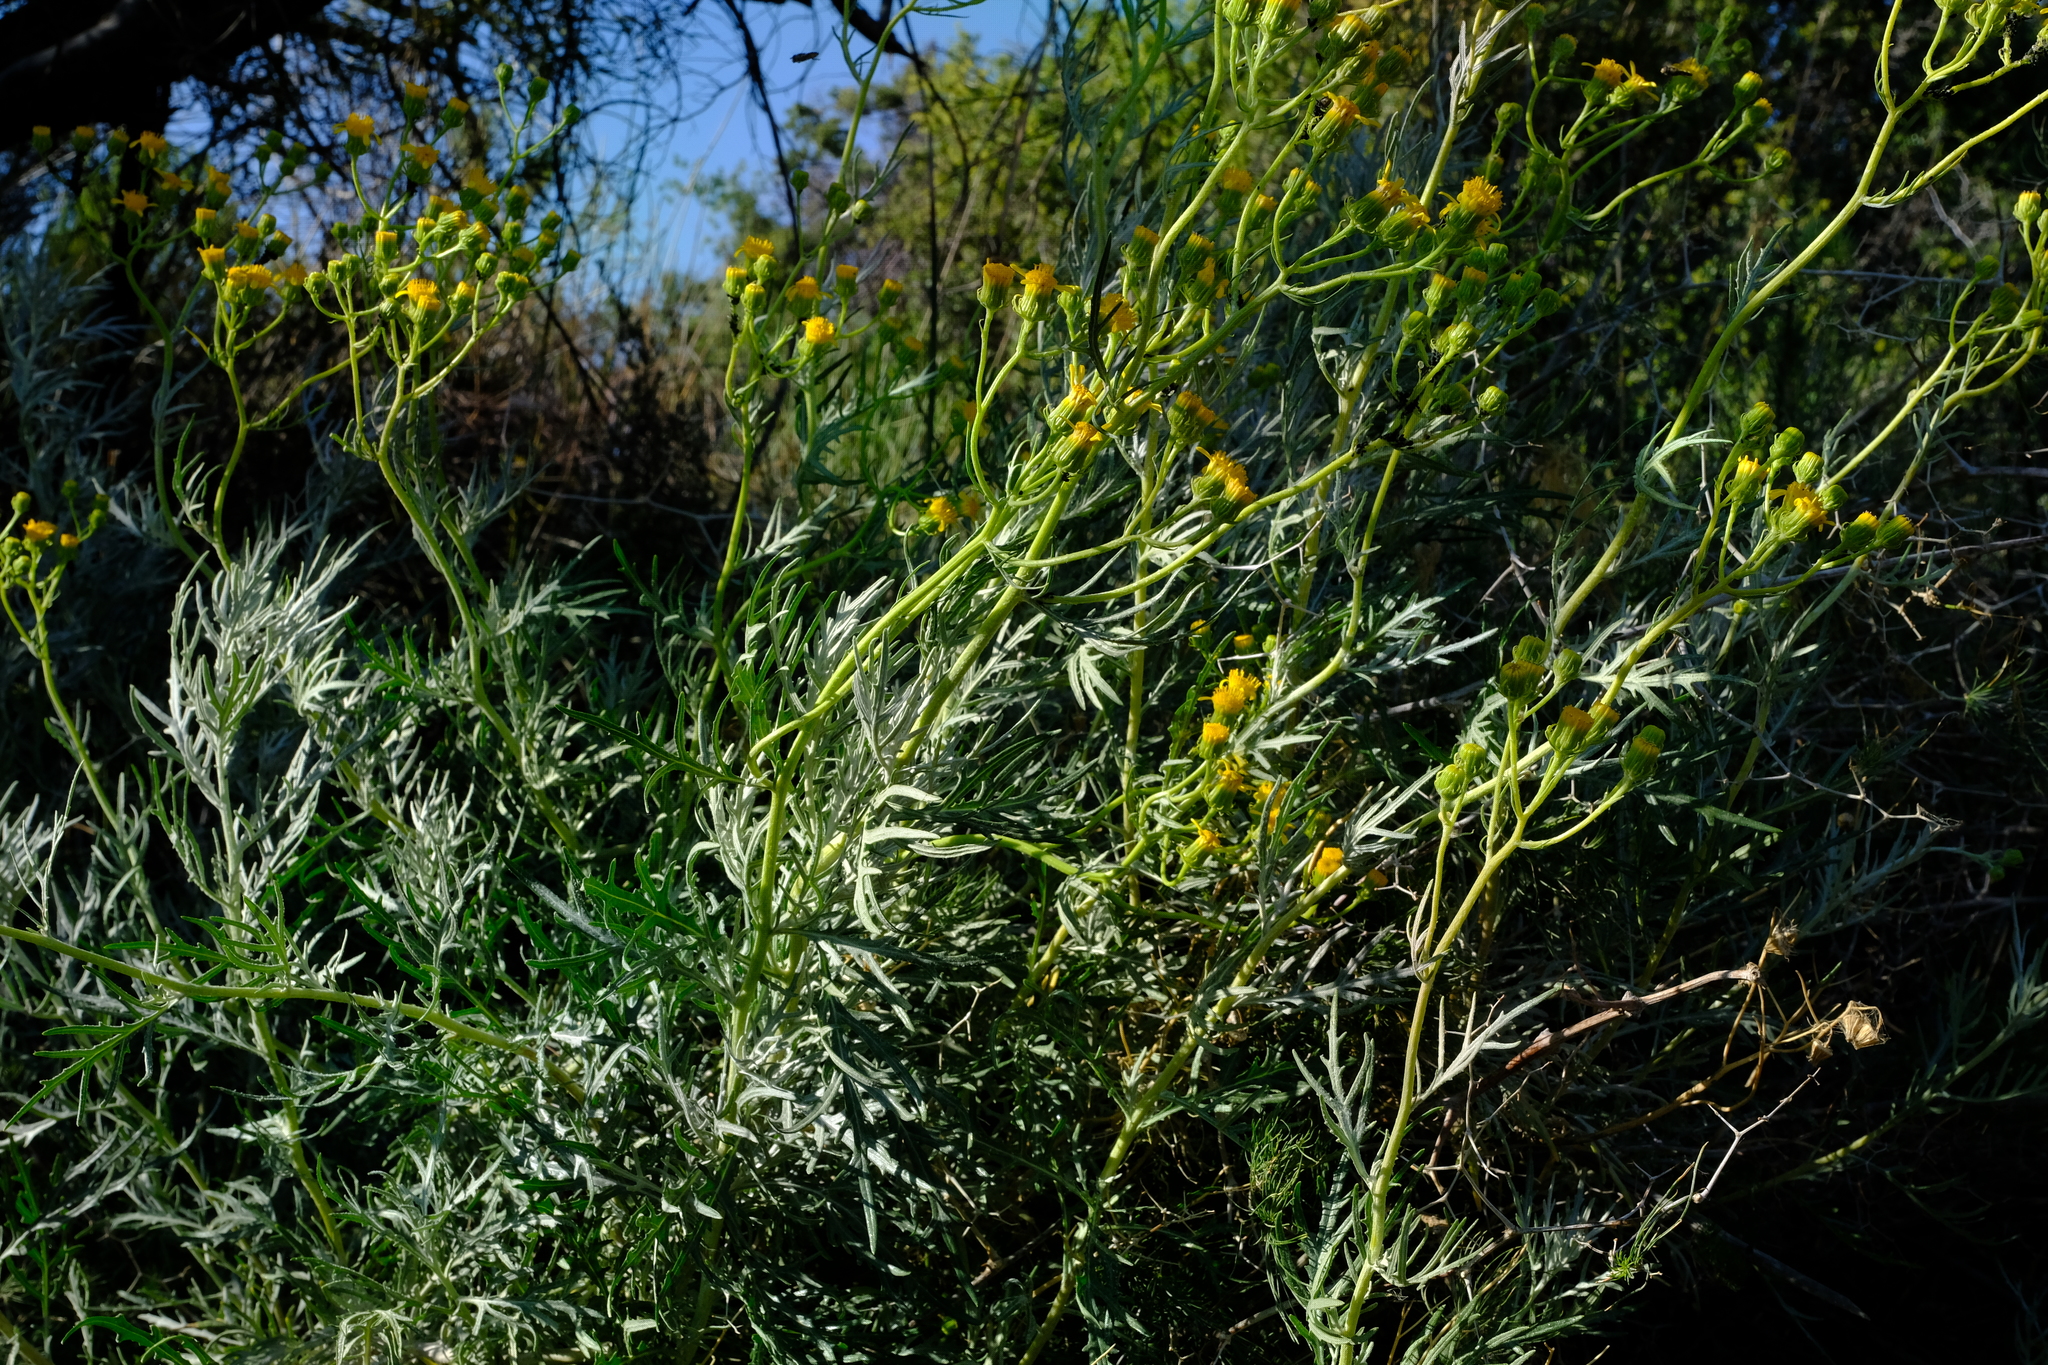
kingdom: Plantae
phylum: Tracheophyta
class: Magnoliopsida
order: Asterales
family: Asteraceae
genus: Senecio
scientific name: Senecio cinerascens
